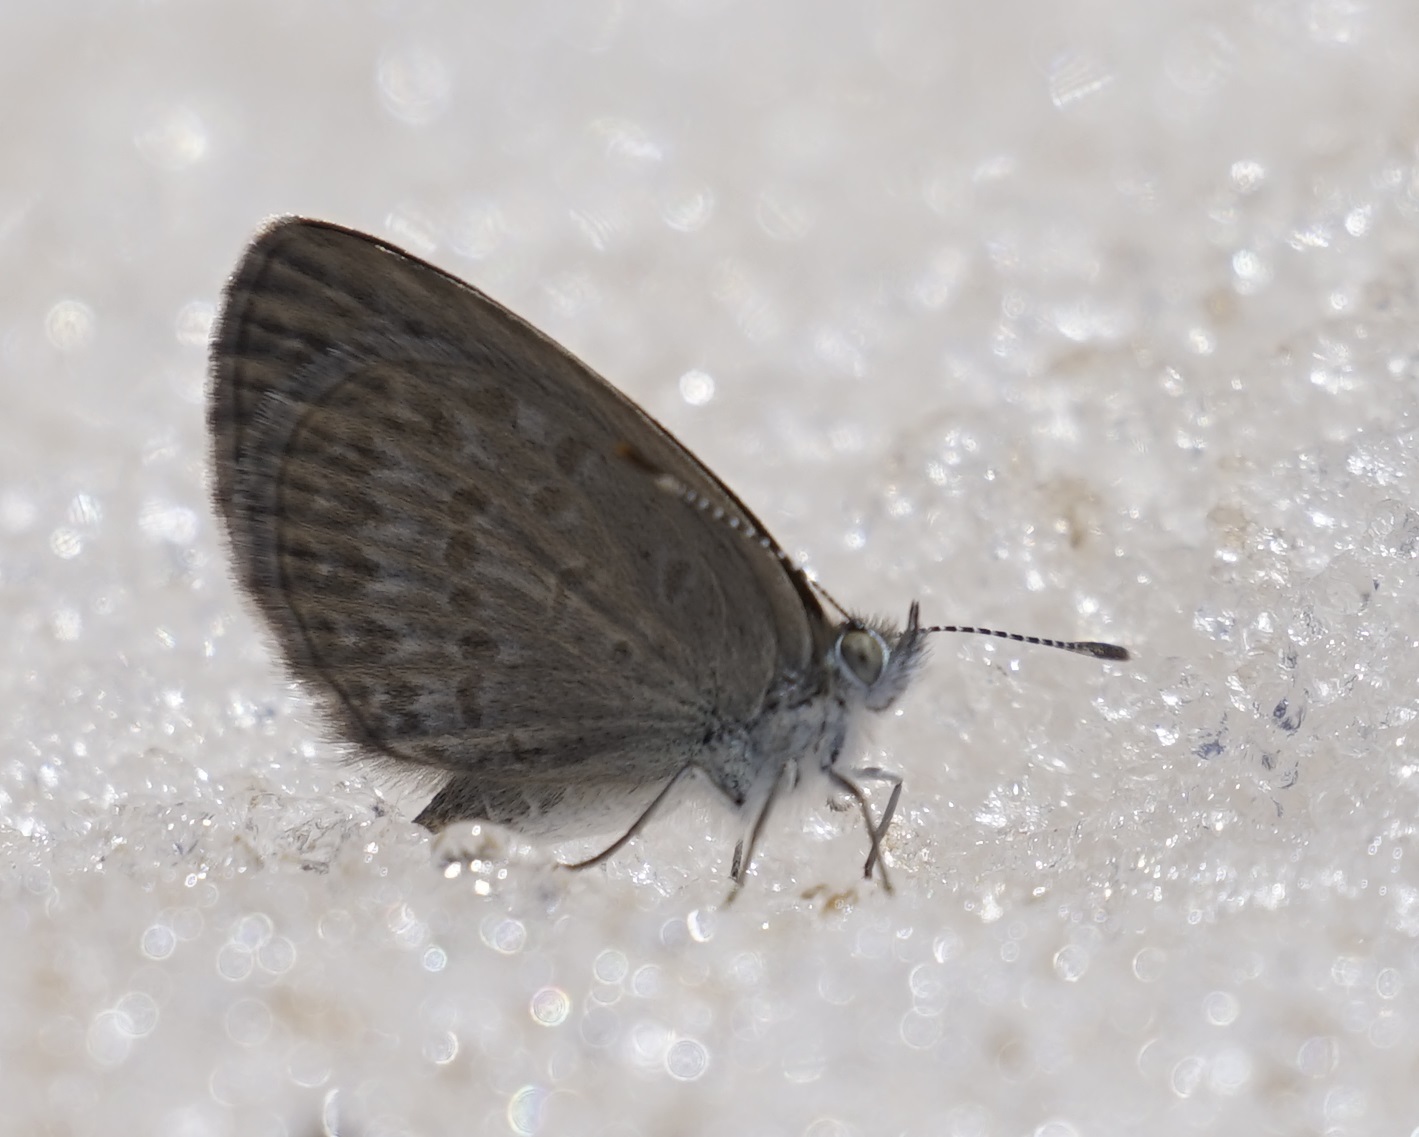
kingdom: Animalia
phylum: Arthropoda
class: Insecta
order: Lepidoptera
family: Lycaenidae
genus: Zizina
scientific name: Zizina labradus
